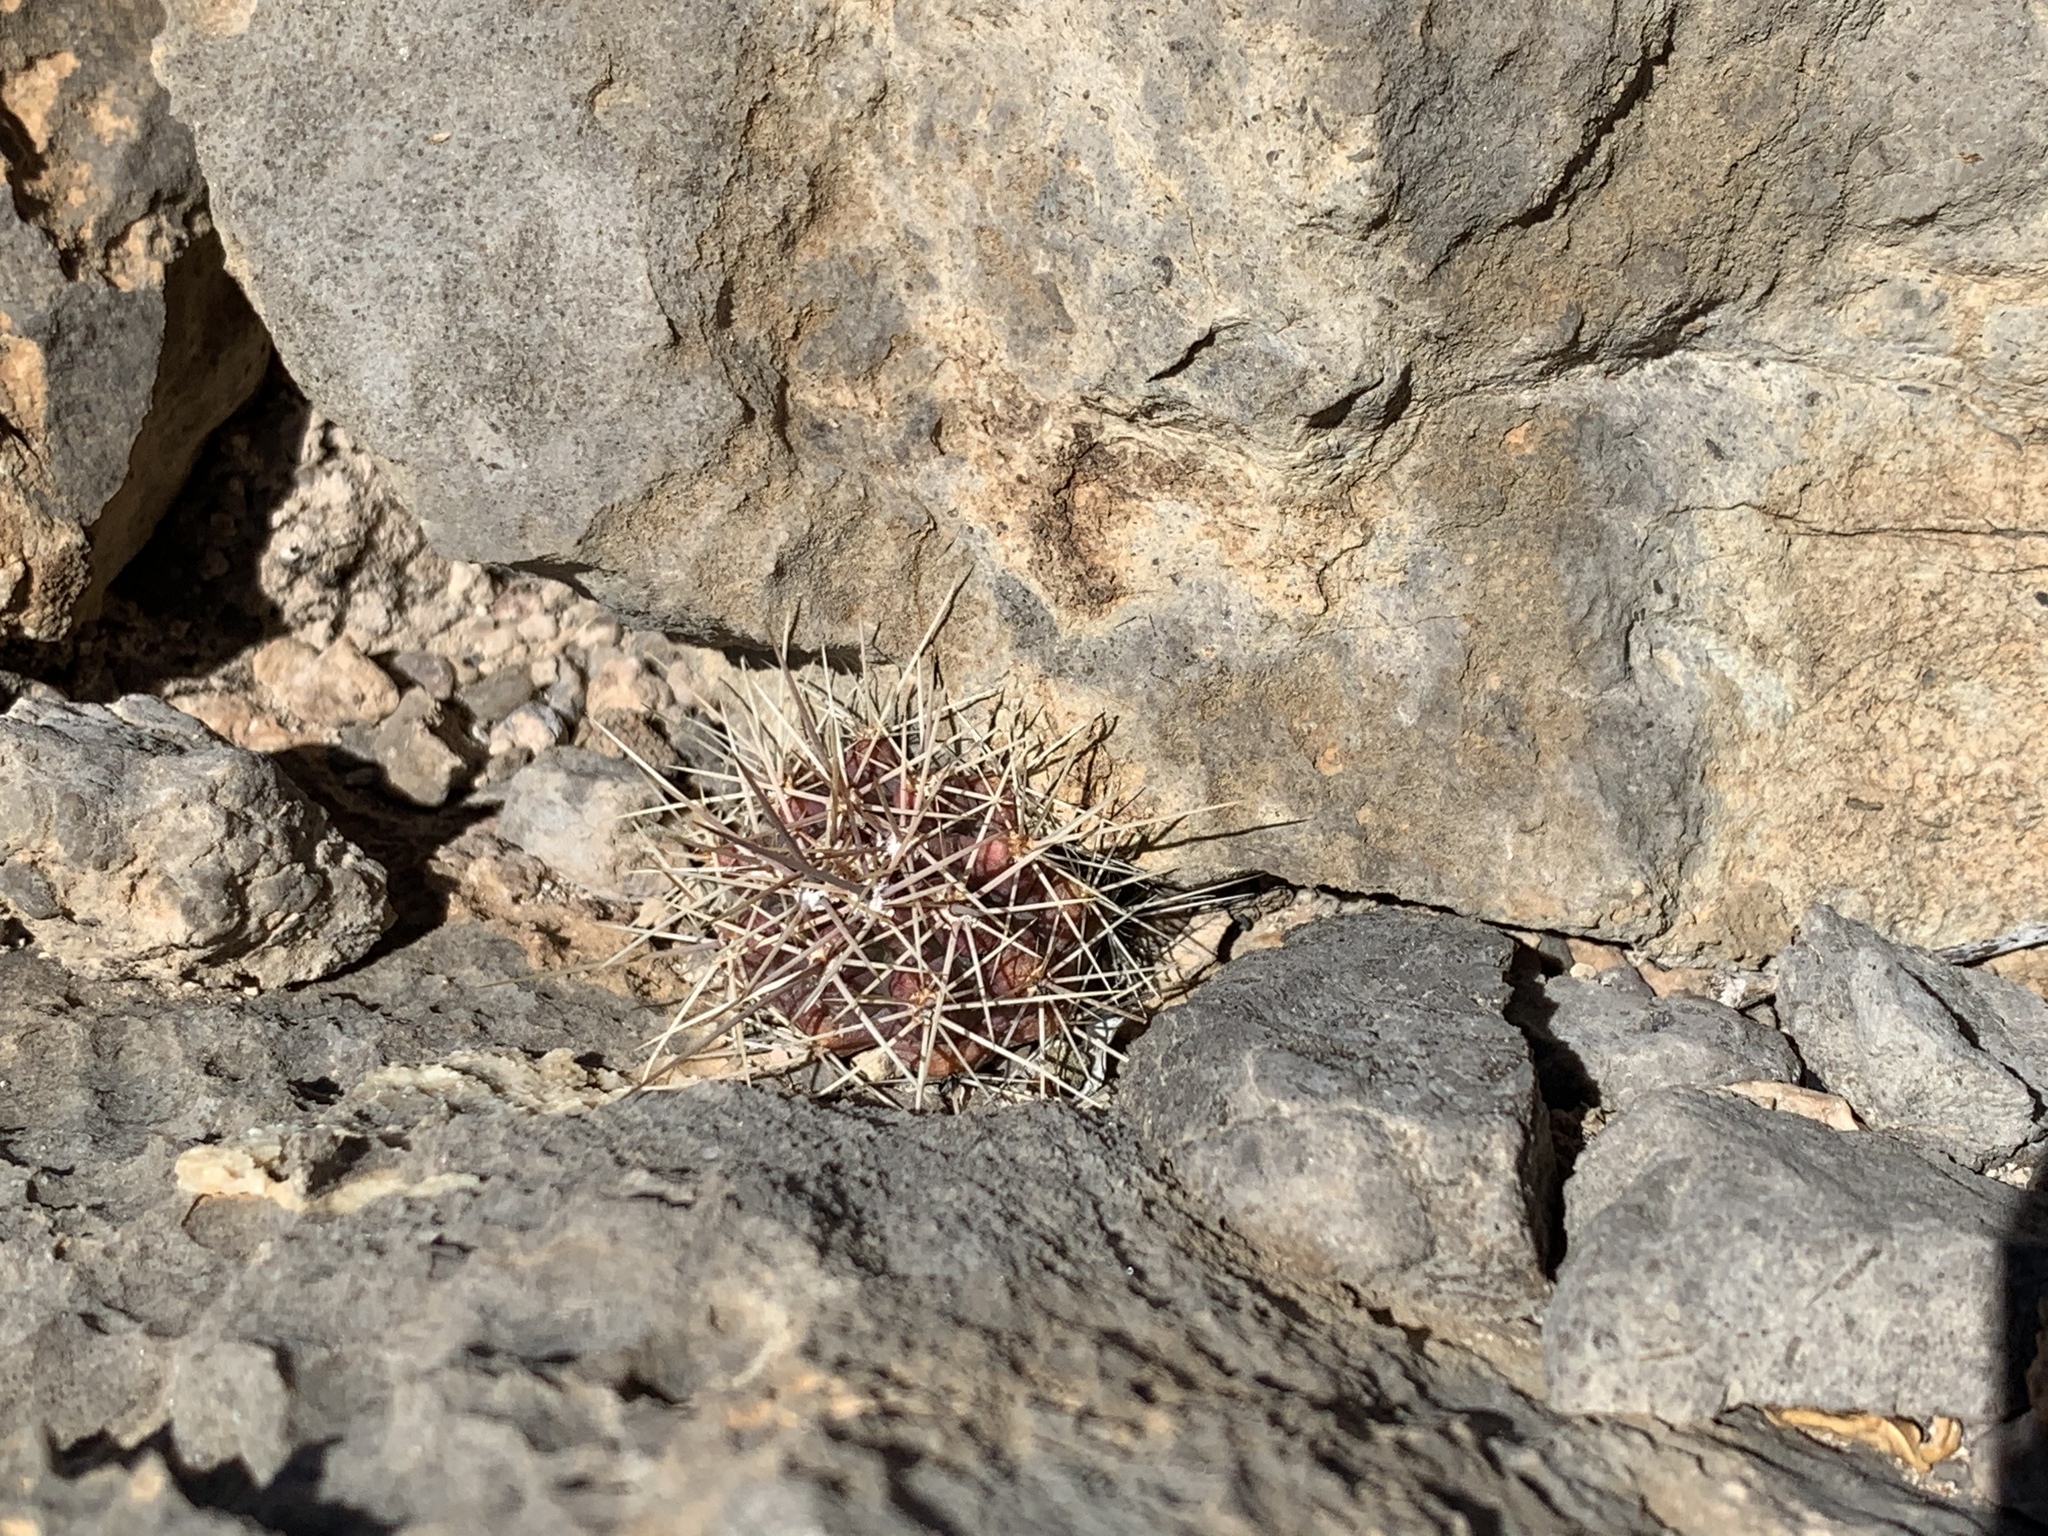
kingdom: Plantae
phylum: Tracheophyta
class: Magnoliopsida
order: Caryophyllales
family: Cactaceae
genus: Echinocereus
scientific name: Echinocereus coccineus
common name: Scarlet hedgehog cactus
